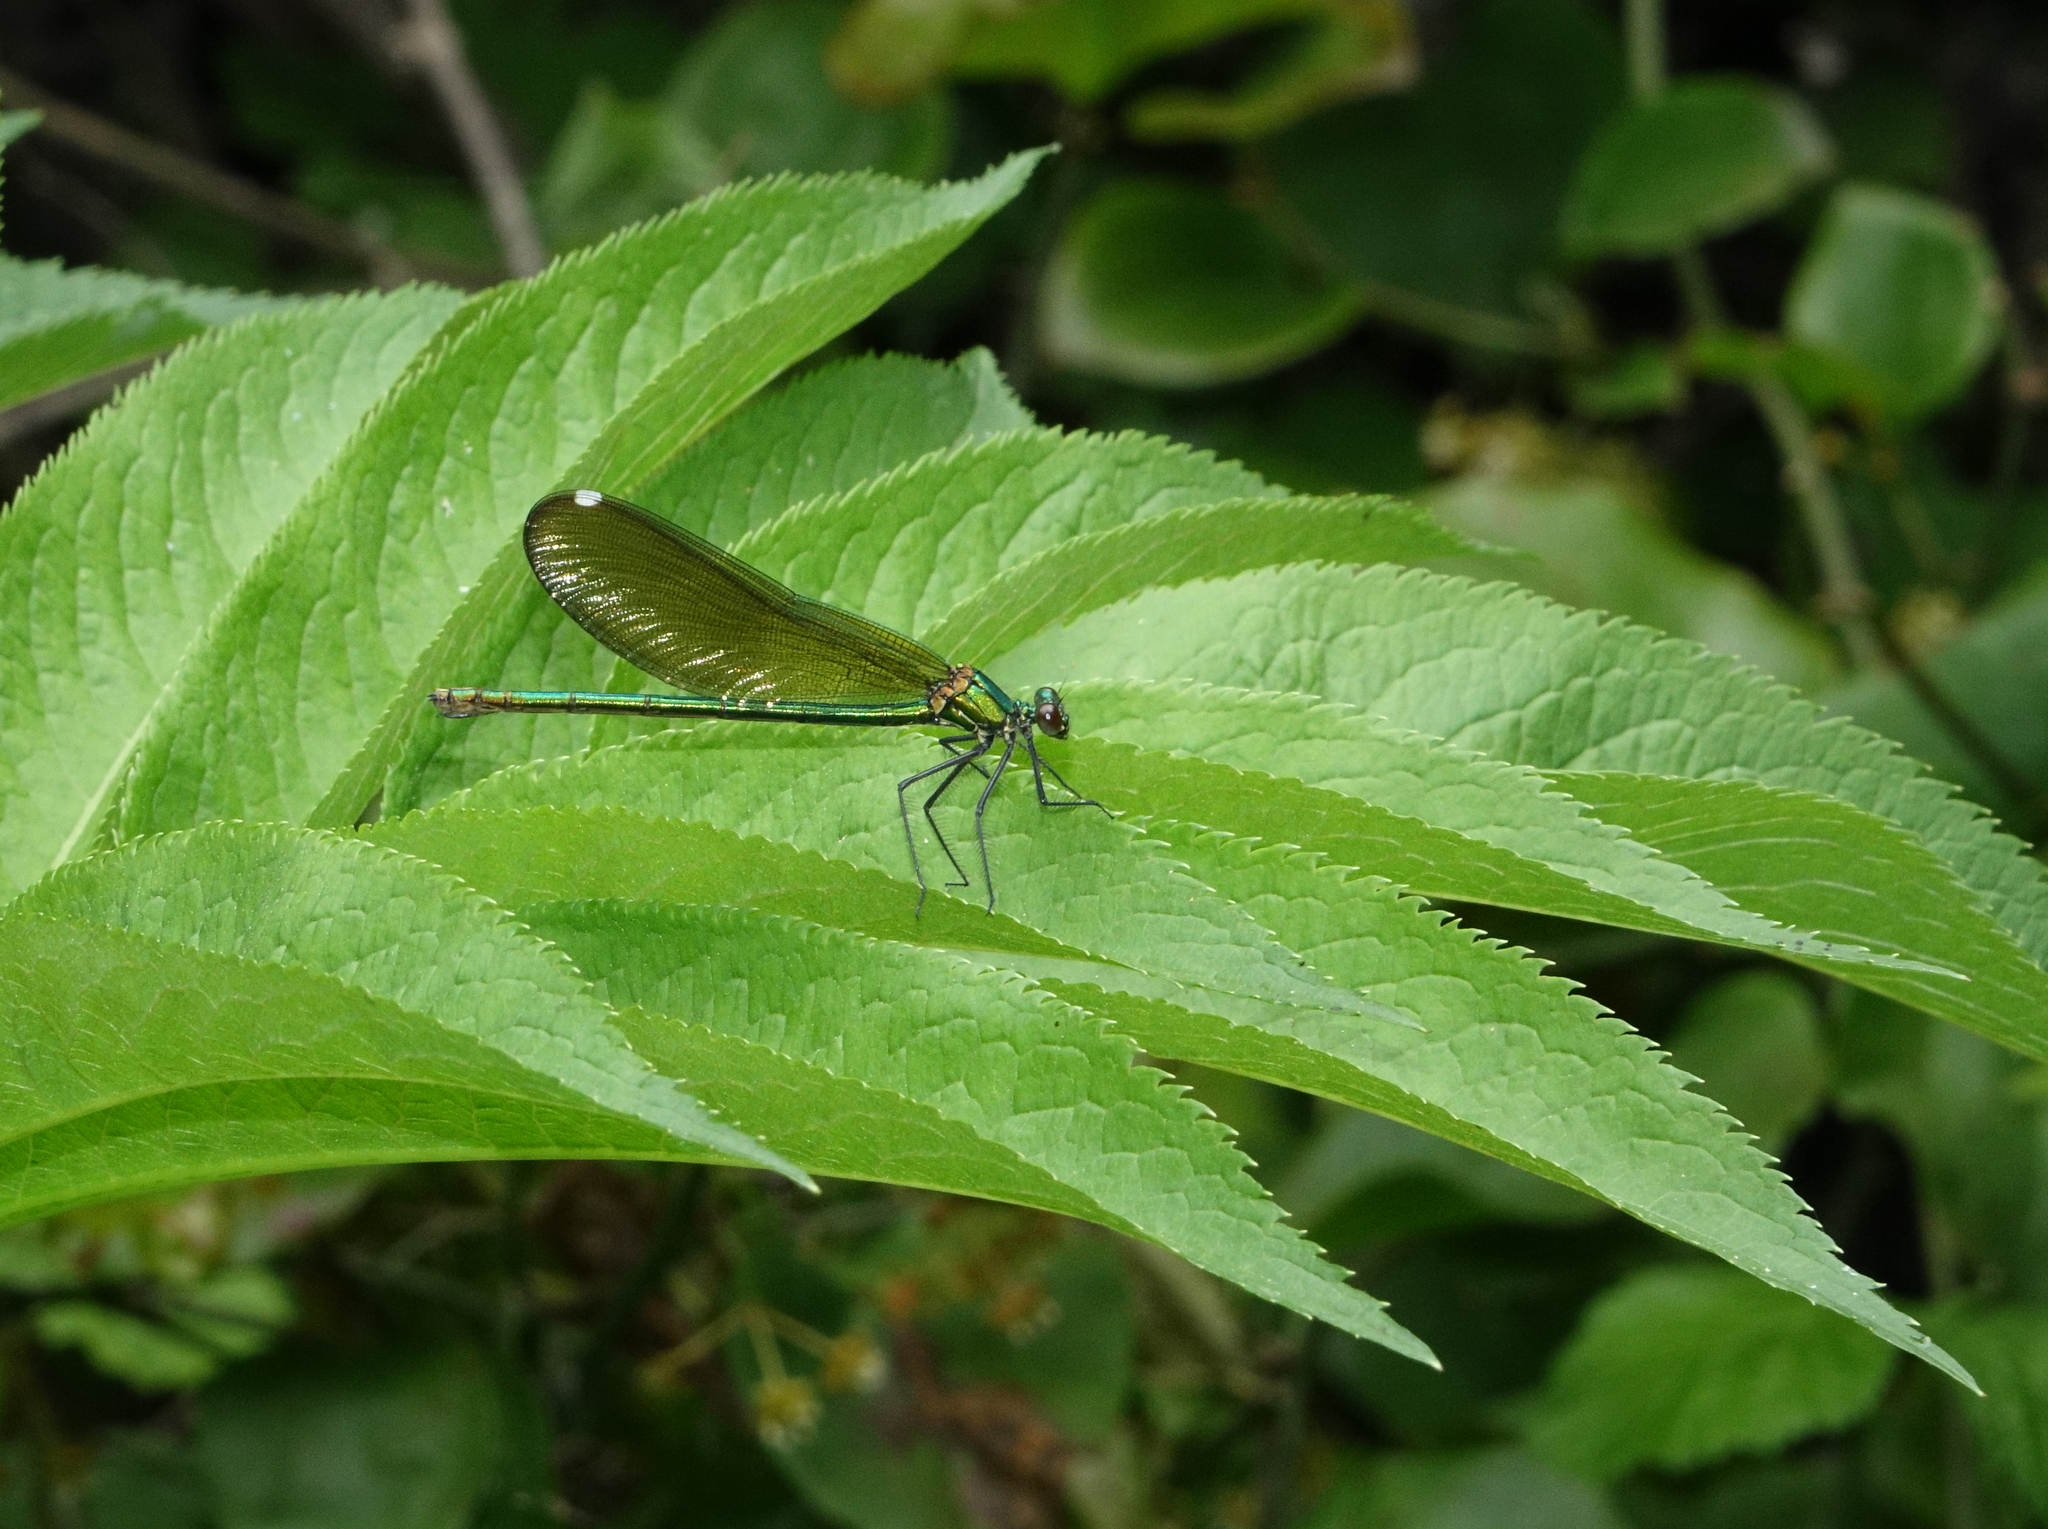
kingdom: Animalia
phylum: Arthropoda
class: Insecta
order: Odonata
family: Calopterygidae
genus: Calopteryx
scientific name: Calopteryx splendens
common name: Banded demoiselle
